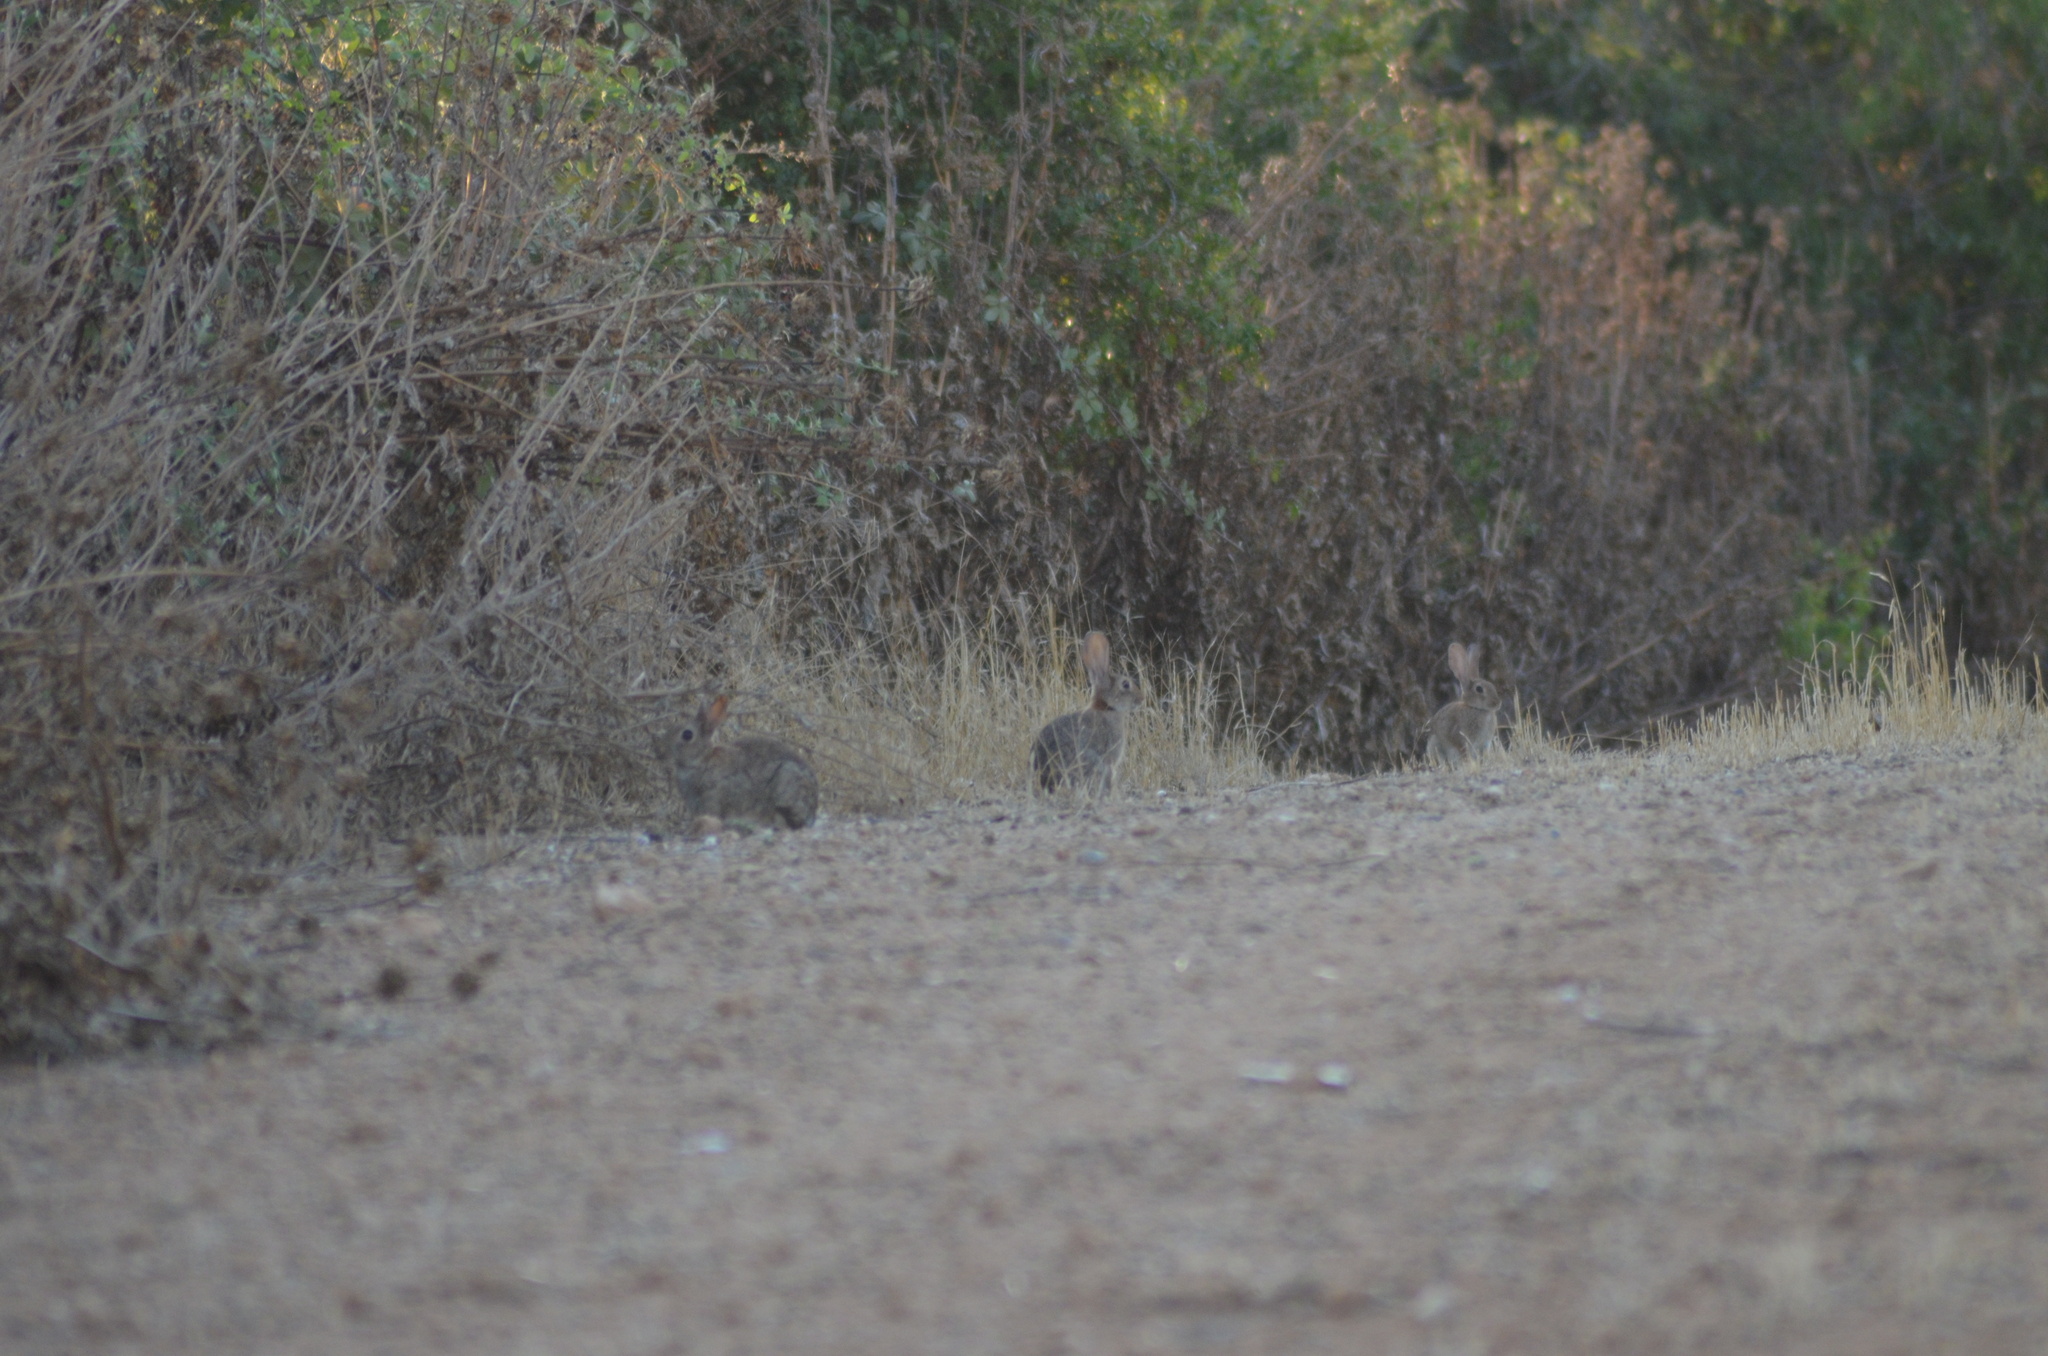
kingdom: Animalia
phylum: Chordata
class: Mammalia
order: Lagomorpha
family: Leporidae
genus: Oryctolagus
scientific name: Oryctolagus cuniculus
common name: European rabbit
